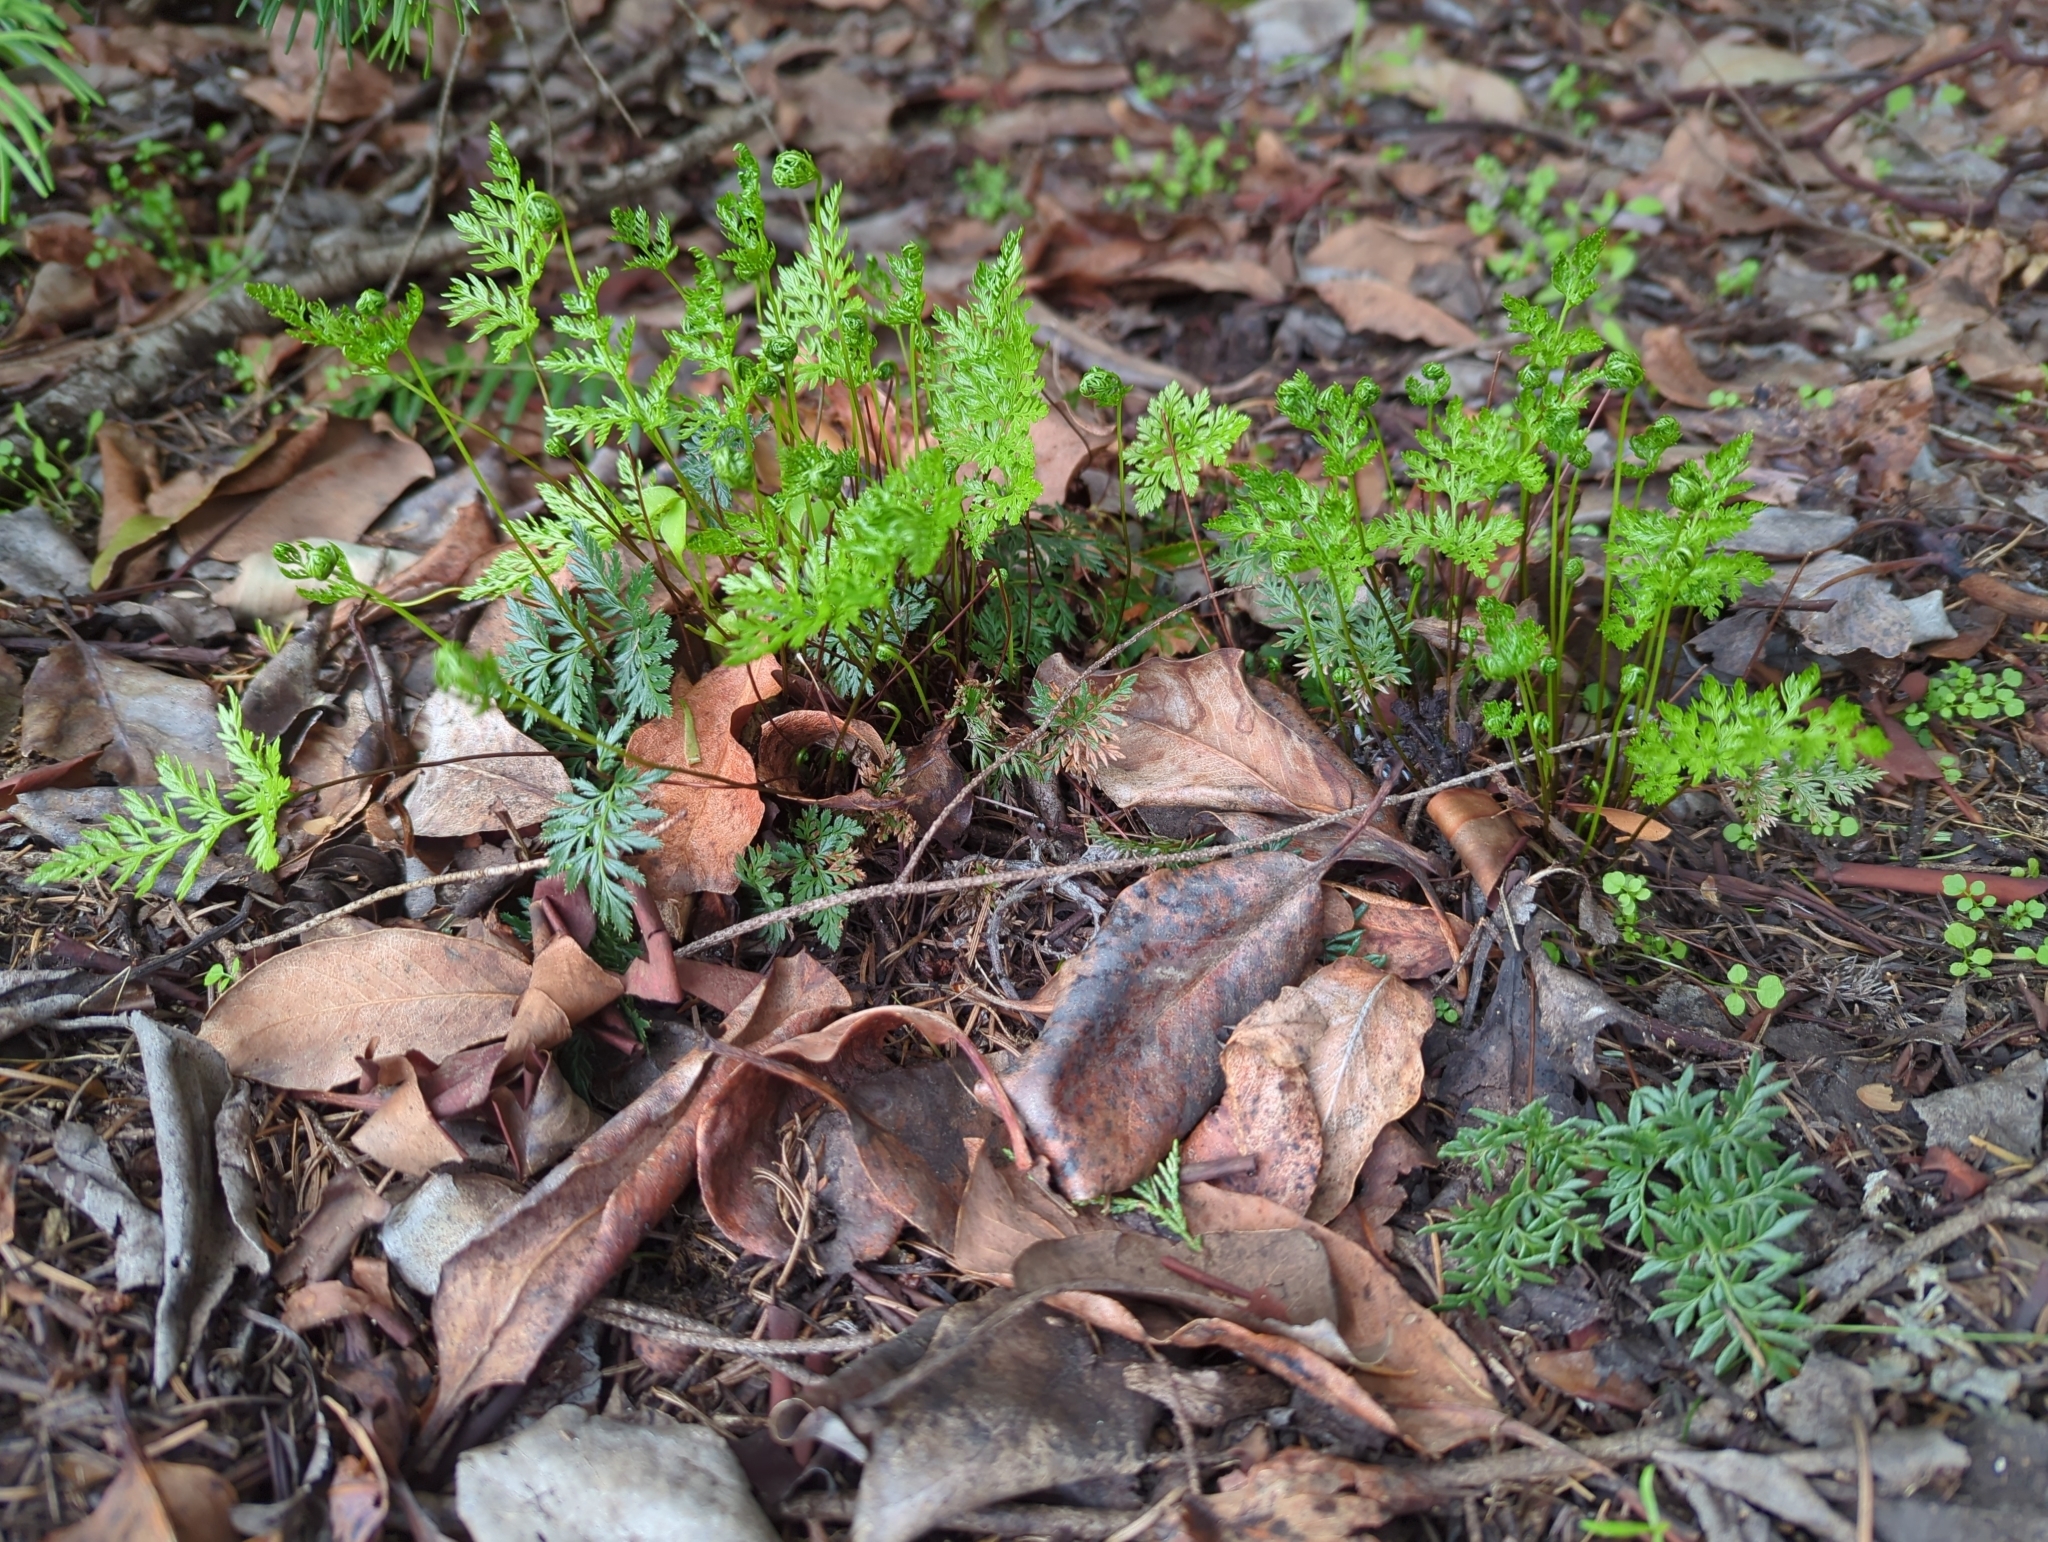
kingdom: Plantae
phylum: Tracheophyta
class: Polypodiopsida
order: Polypodiales
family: Pteridaceae
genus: Aspidotis
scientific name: Aspidotis densa
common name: Indian's dream
